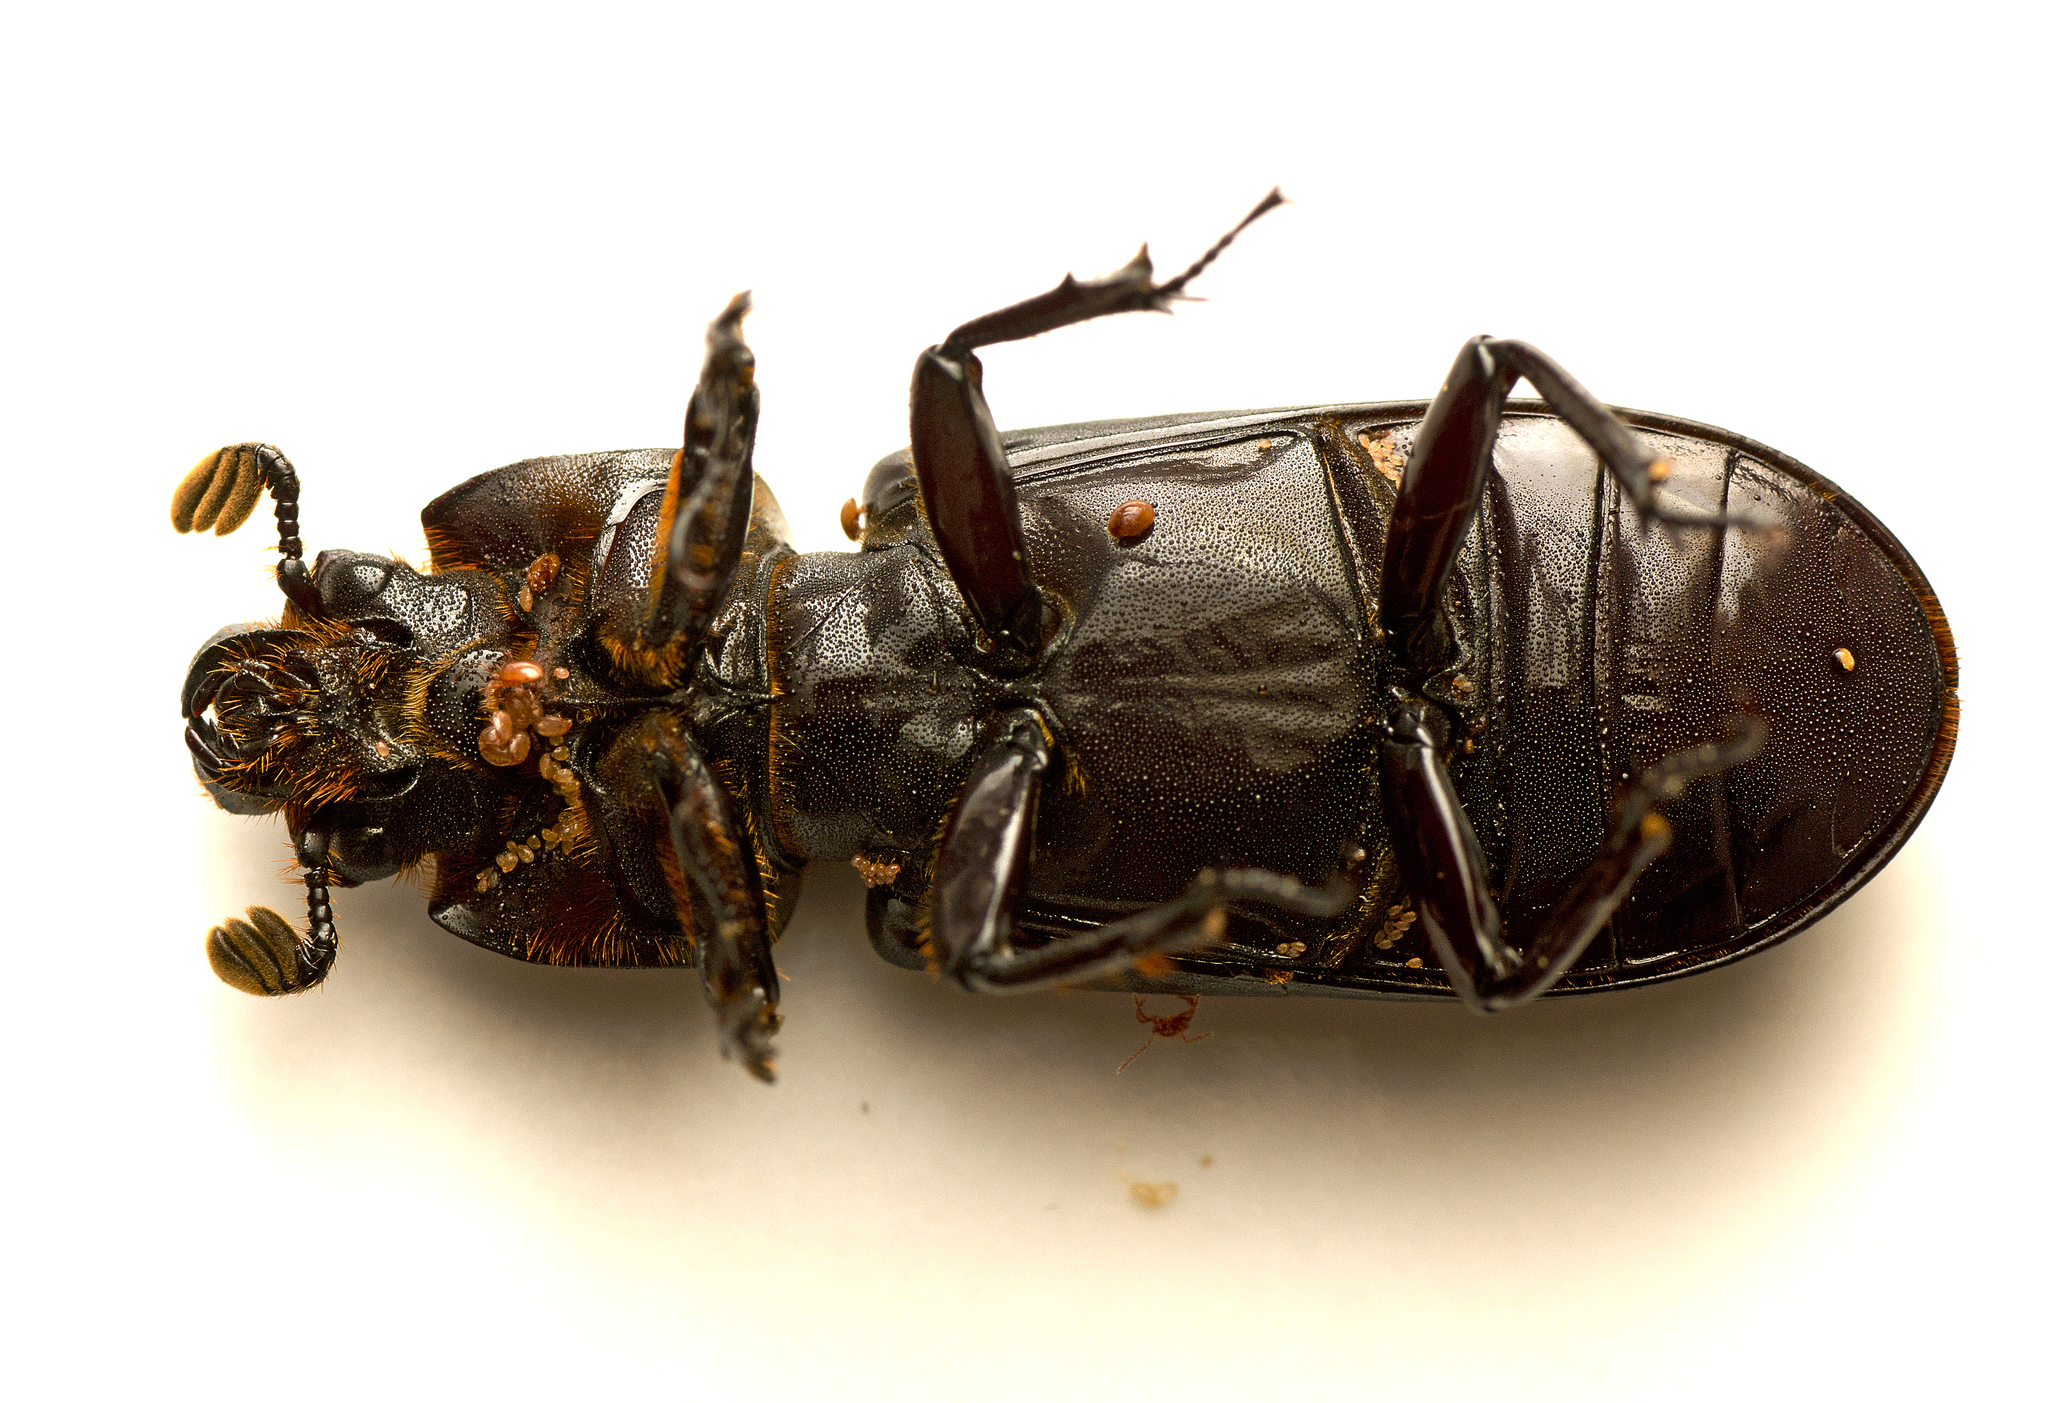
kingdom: Animalia
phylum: Arthropoda
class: Insecta
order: Coleoptera
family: Passalidae
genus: Aulacocyclus
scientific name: Aulacocyclus edentulus
